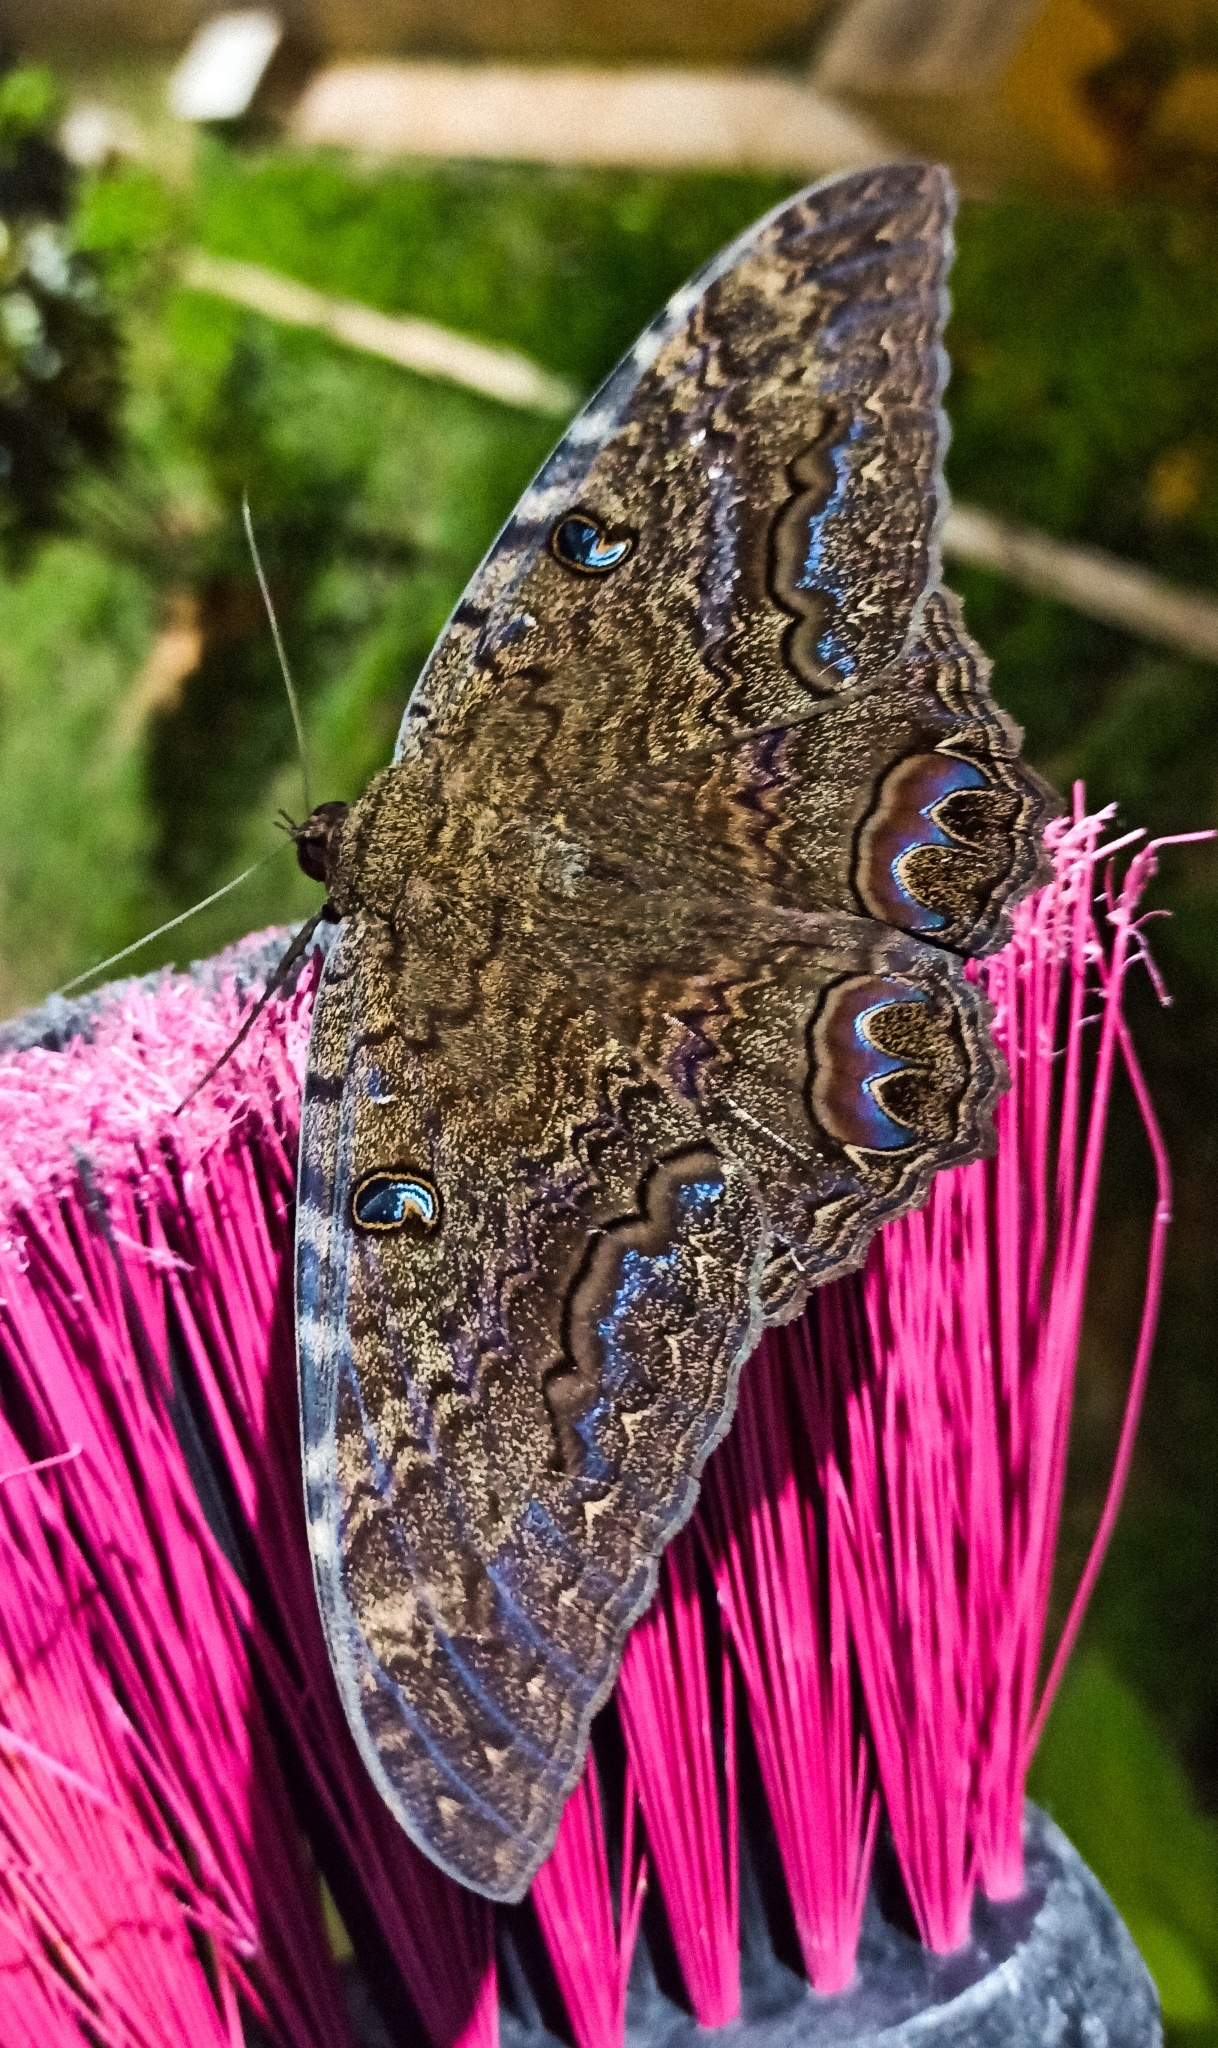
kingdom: Animalia
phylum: Arthropoda
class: Insecta
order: Lepidoptera
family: Erebidae
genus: Ascalapha
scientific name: Ascalapha odorata
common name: Black witch
